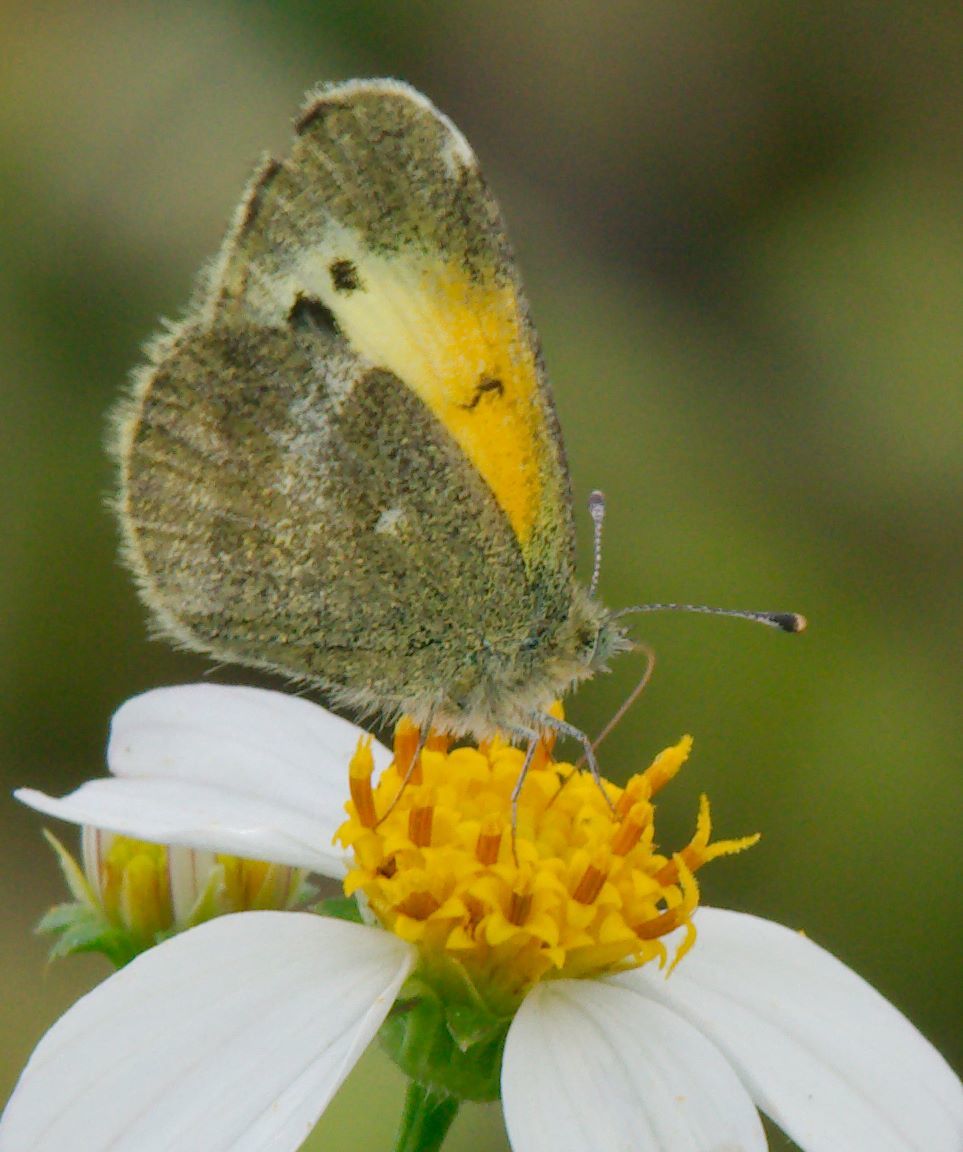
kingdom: Animalia
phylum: Arthropoda
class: Insecta
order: Lepidoptera
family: Pieridae
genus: Nathalis
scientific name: Nathalis iole
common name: Dainty sulphur
